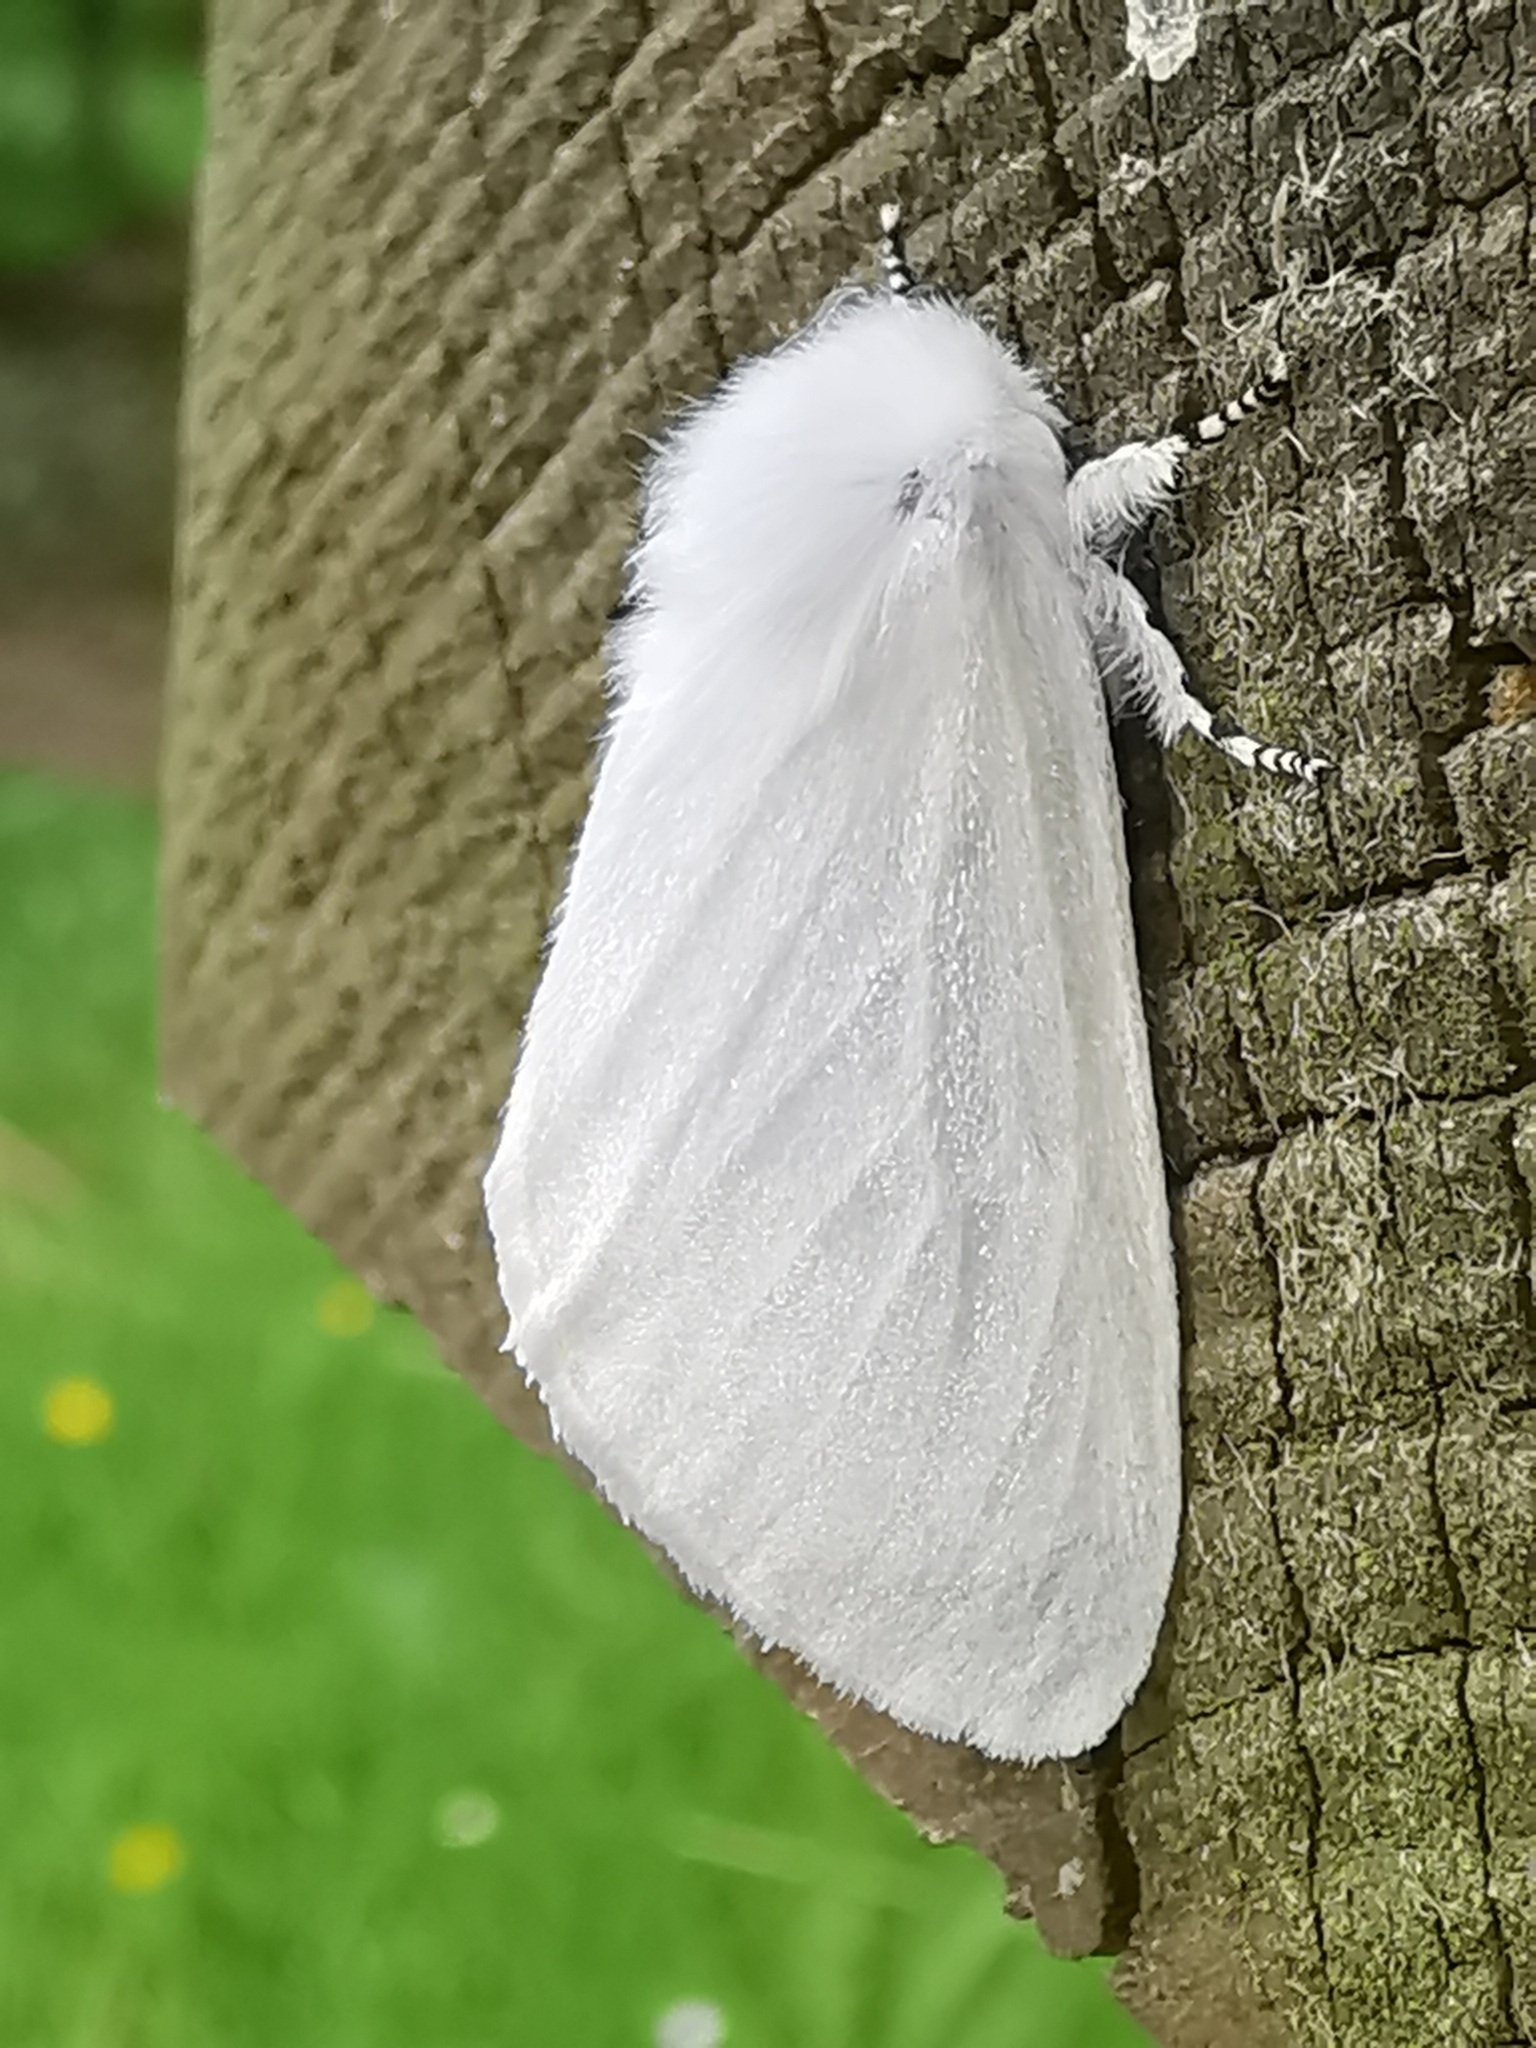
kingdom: Animalia
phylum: Arthropoda
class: Insecta
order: Lepidoptera
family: Erebidae
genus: Leucoma
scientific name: Leucoma salicis
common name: White satin moth
